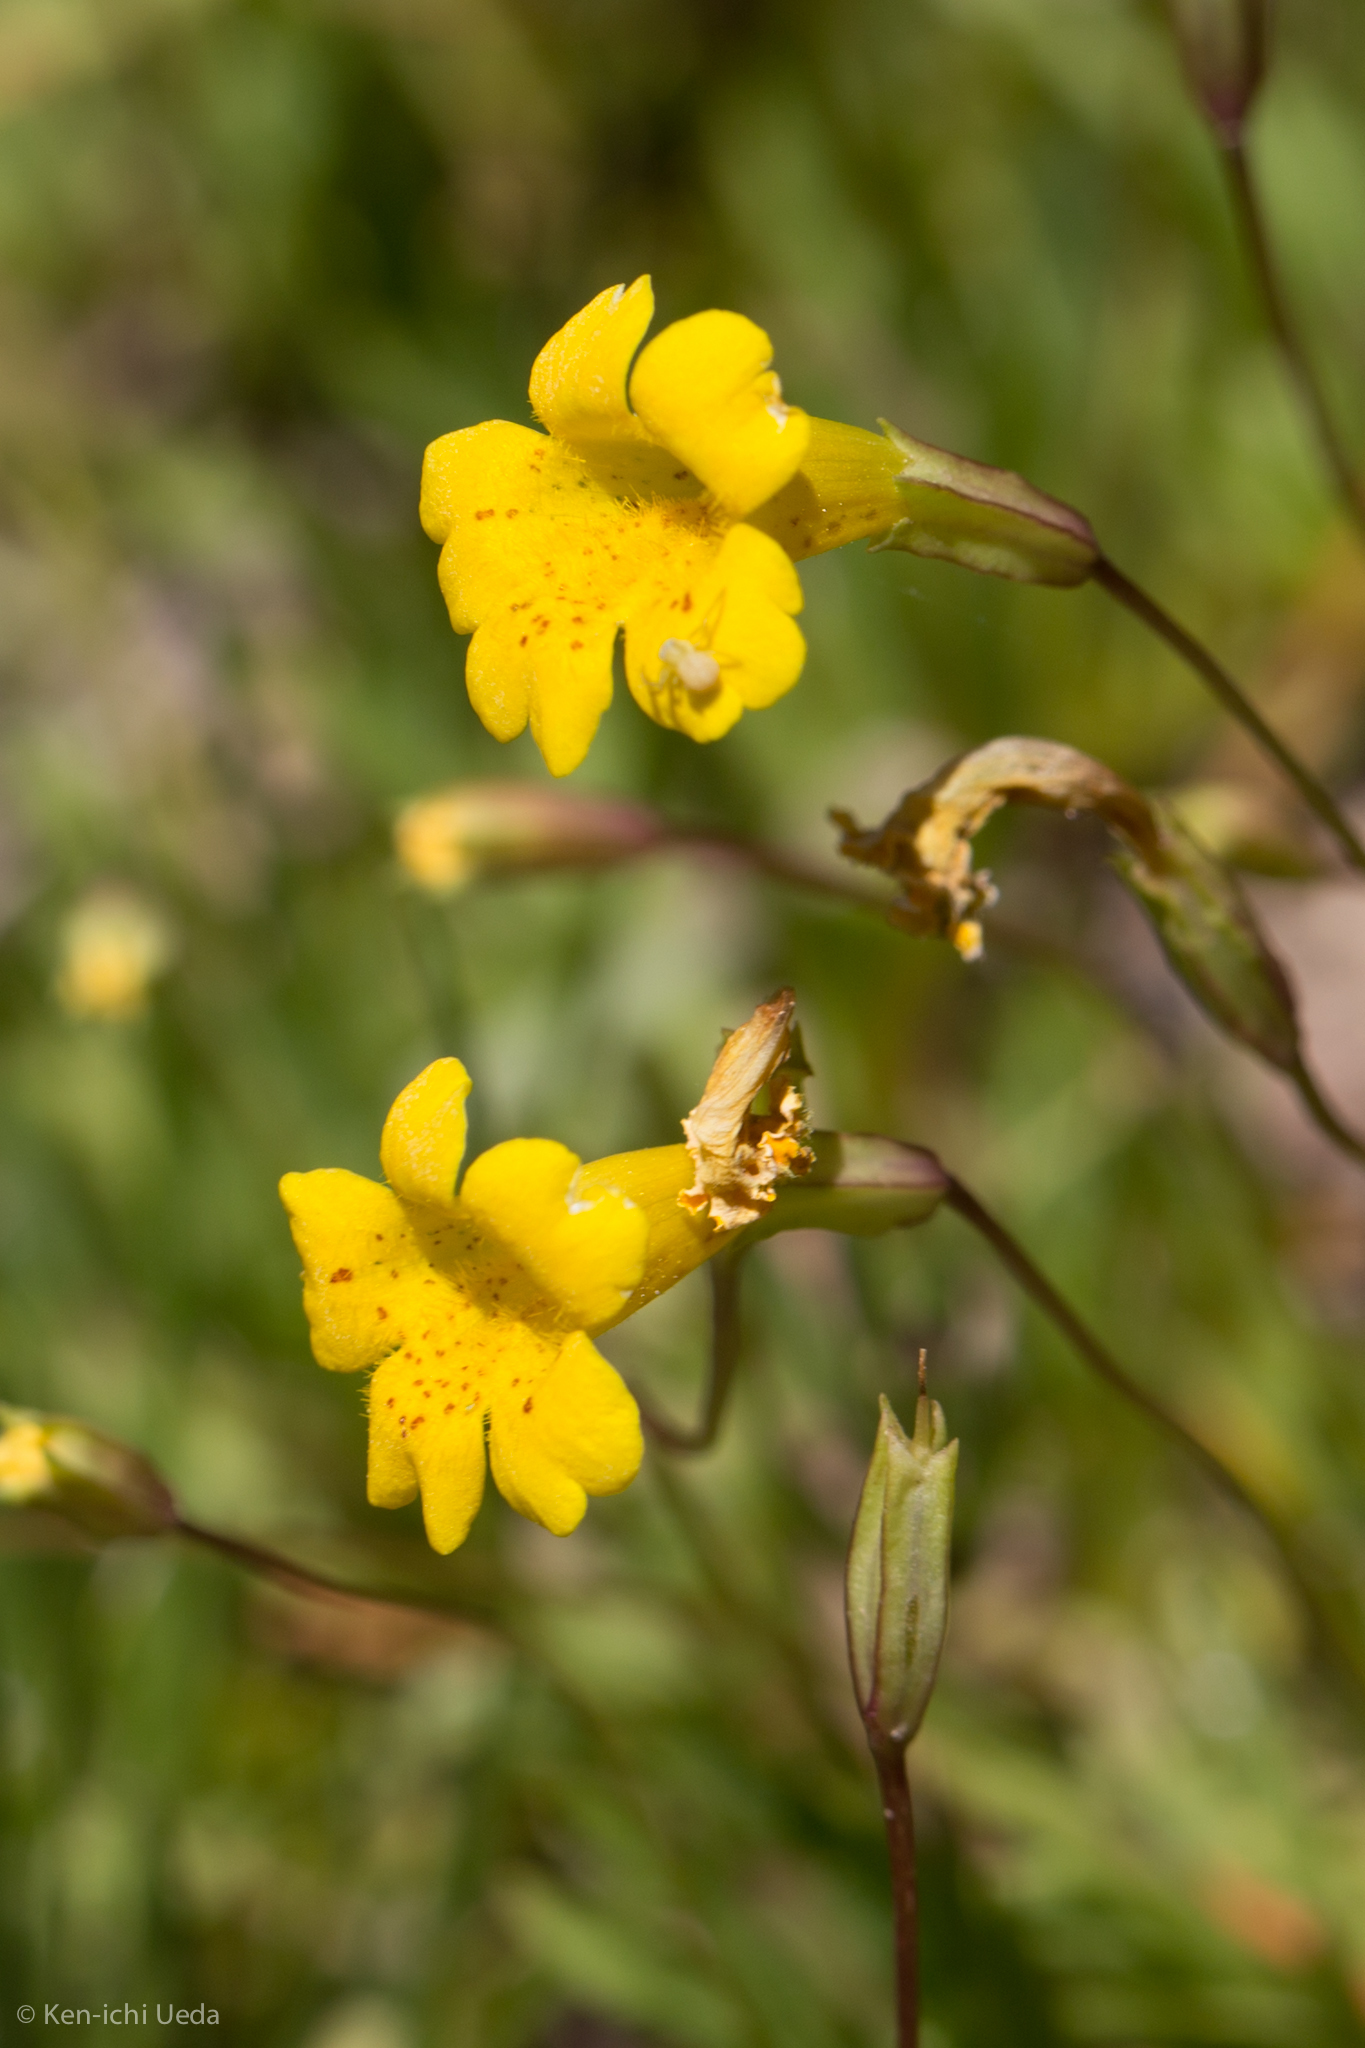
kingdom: Plantae
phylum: Tracheophyta
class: Magnoliopsida
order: Lamiales
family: Phrymaceae
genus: Erythranthe
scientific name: Erythranthe primuloides
